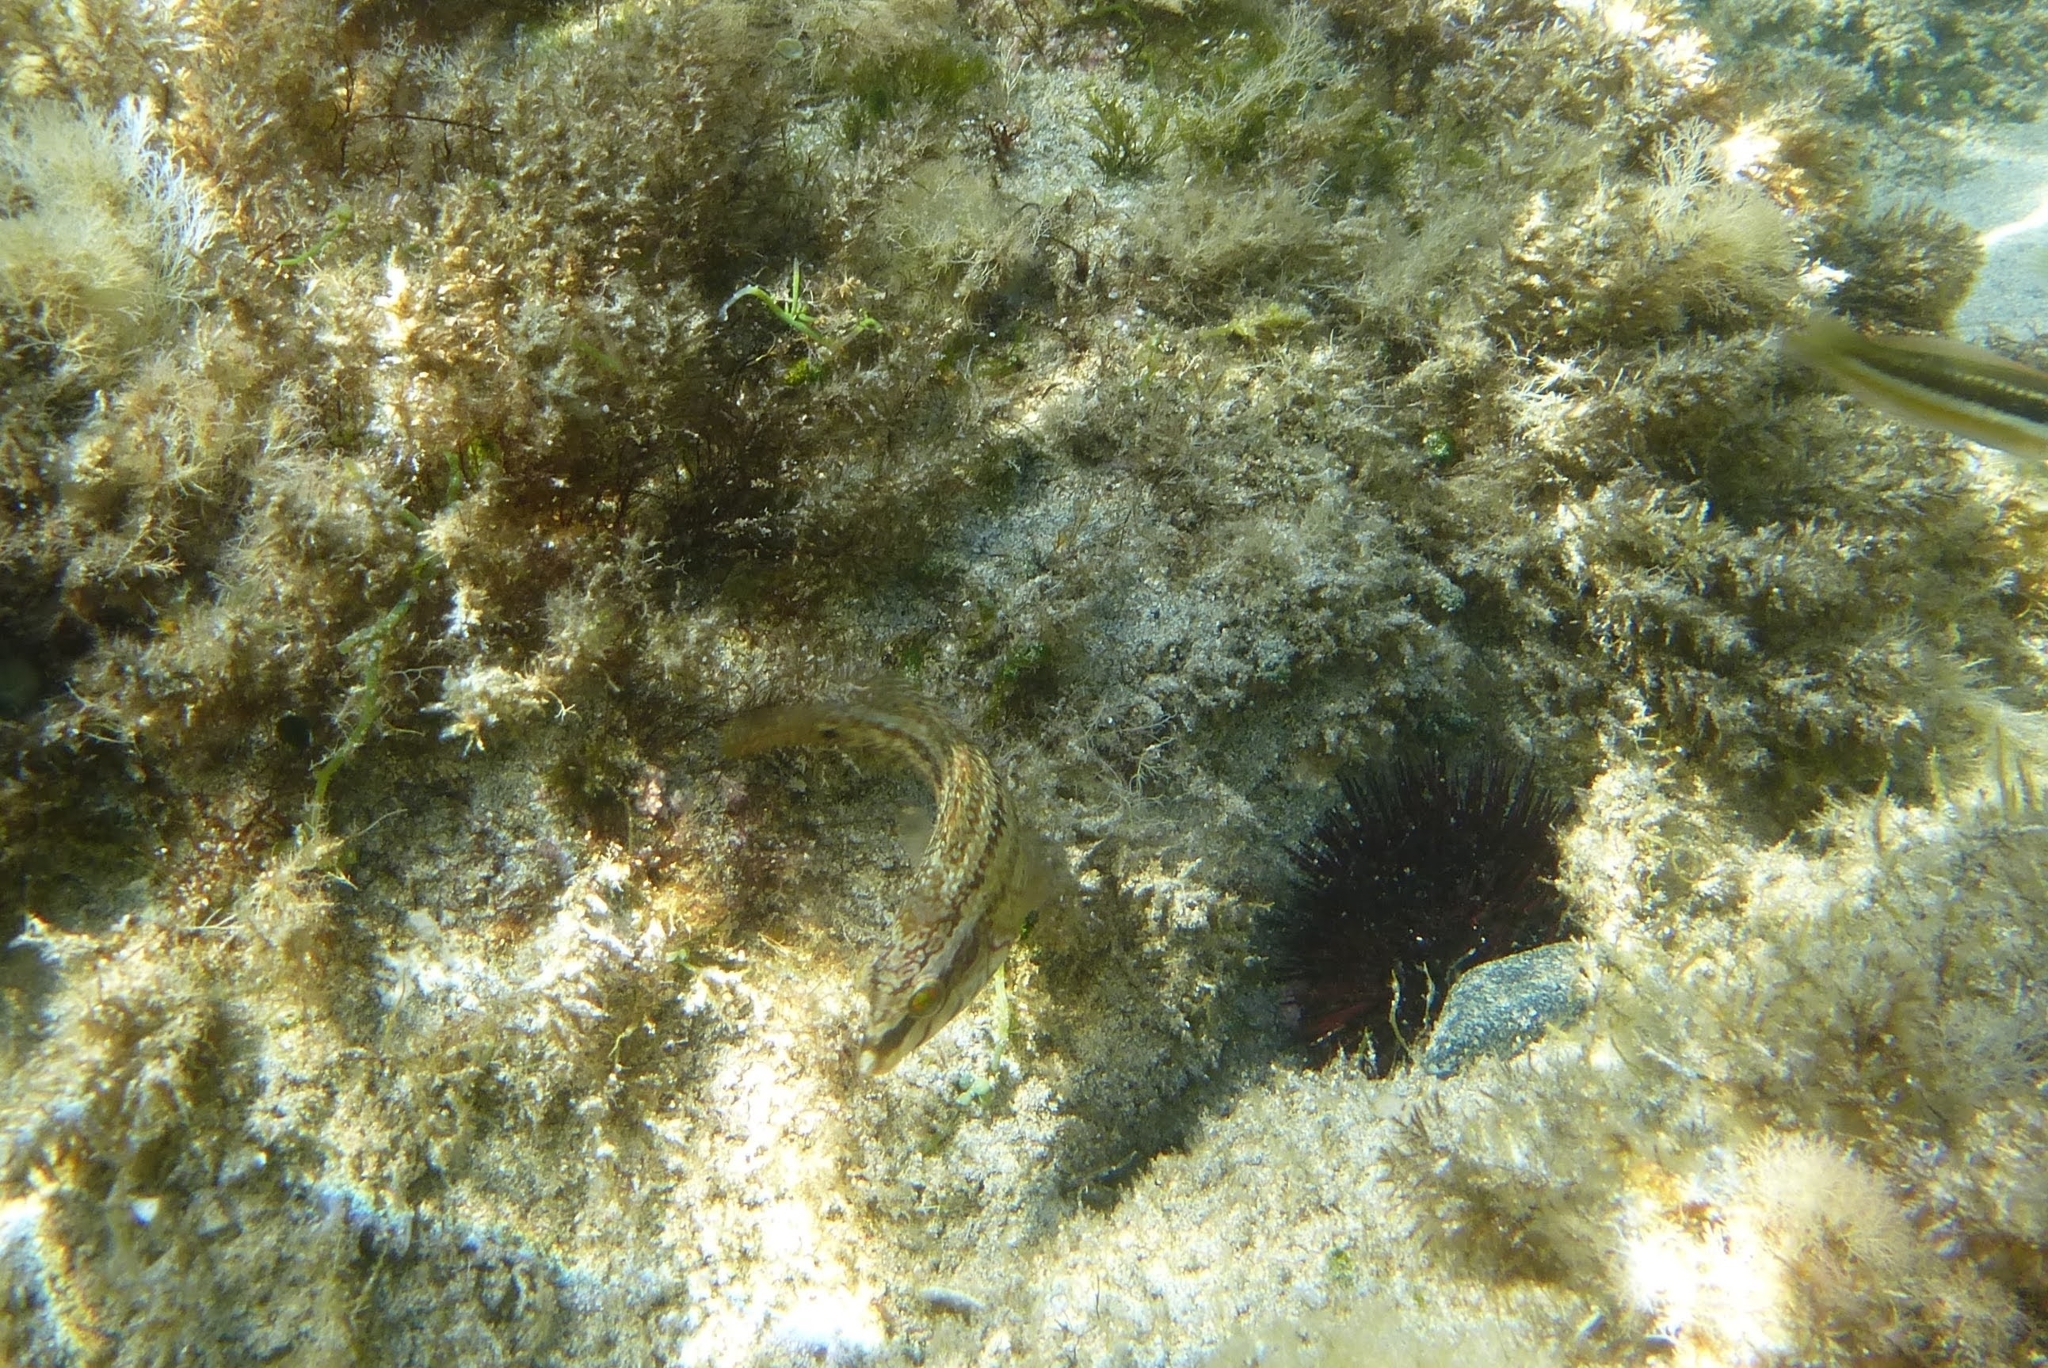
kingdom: Animalia
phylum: Chordata
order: Perciformes
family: Labridae
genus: Symphodus
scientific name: Symphodus roissali
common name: Five-spotted wrasse
